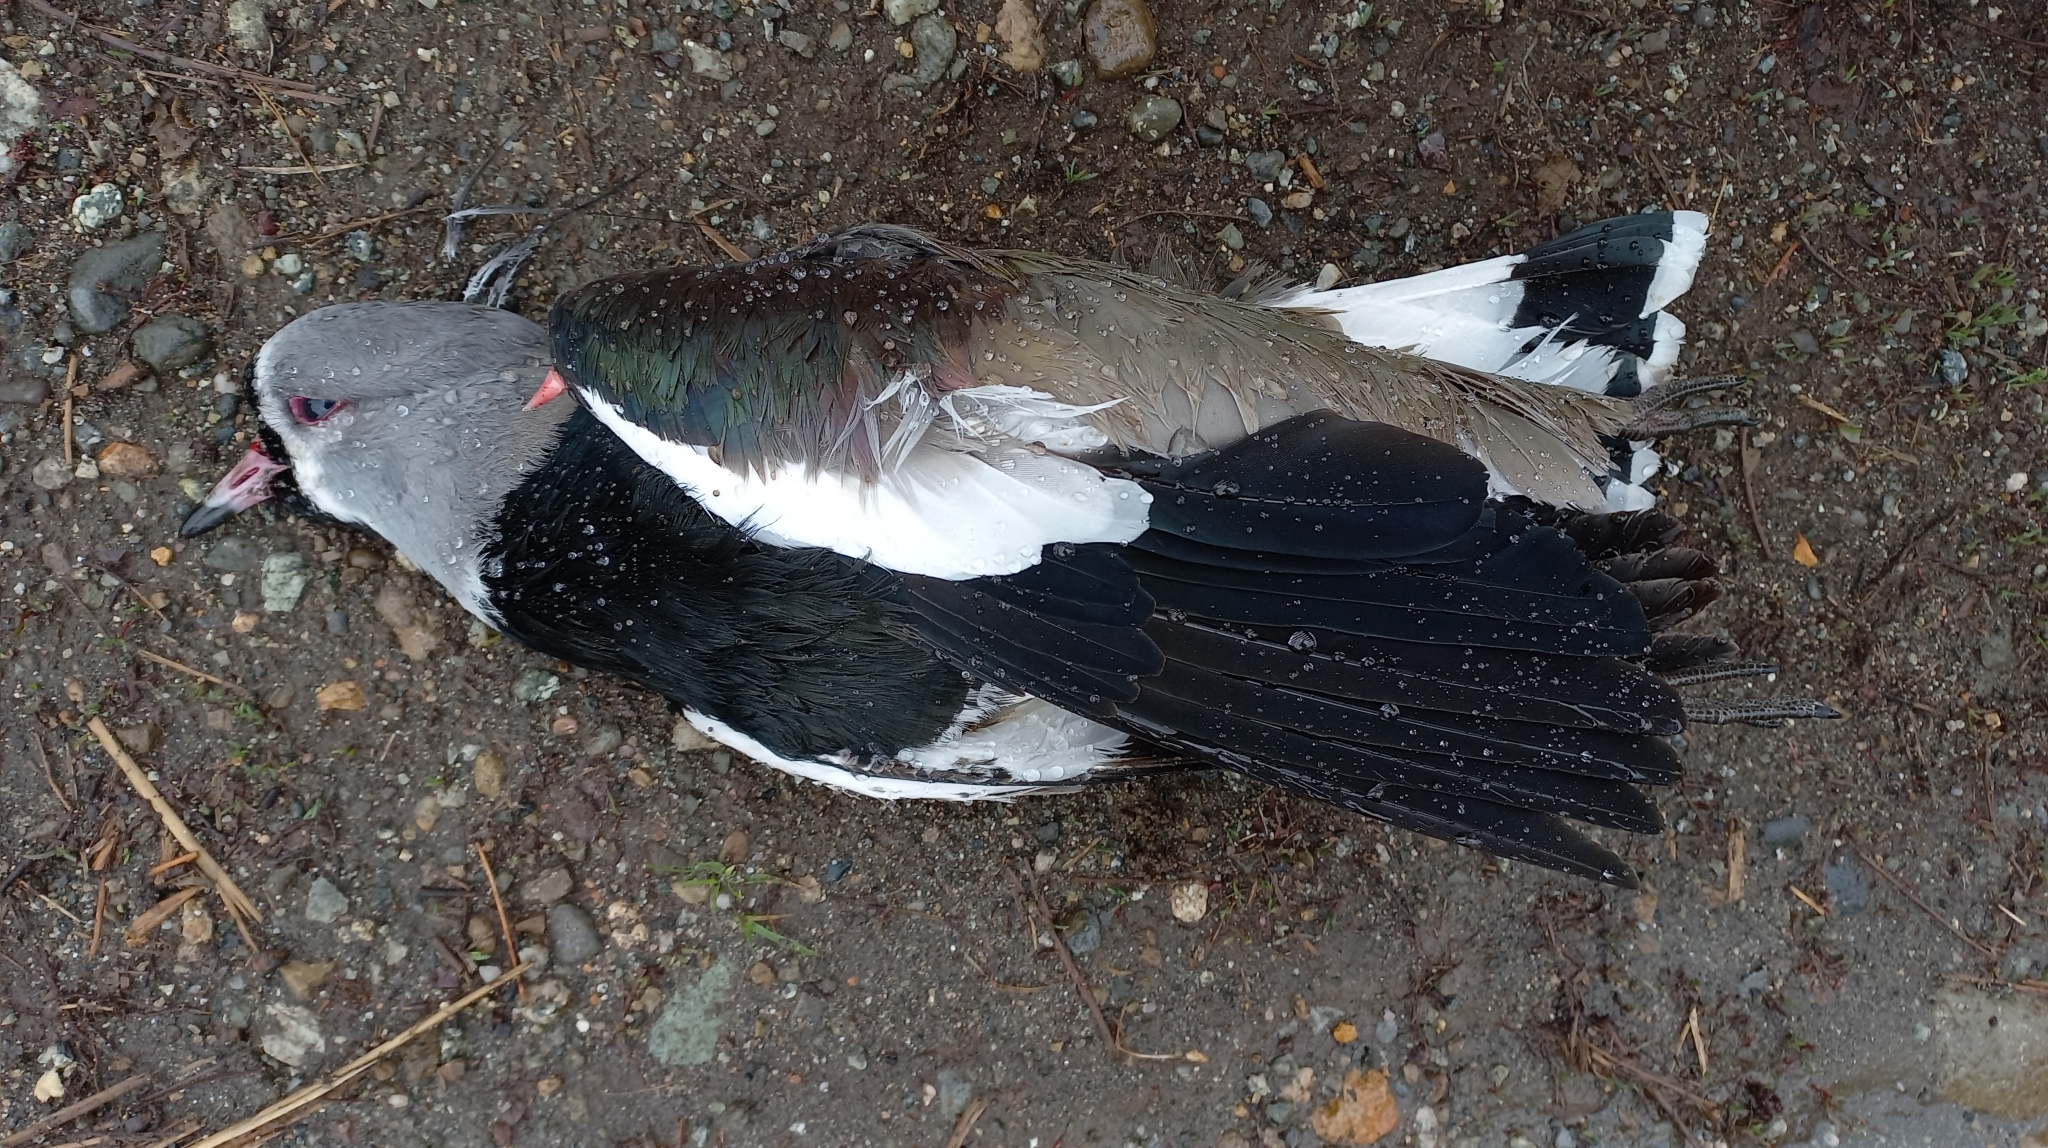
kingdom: Animalia
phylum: Chordata
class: Aves
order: Charadriiformes
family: Charadriidae
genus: Vanellus
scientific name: Vanellus chilensis
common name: Southern lapwing
